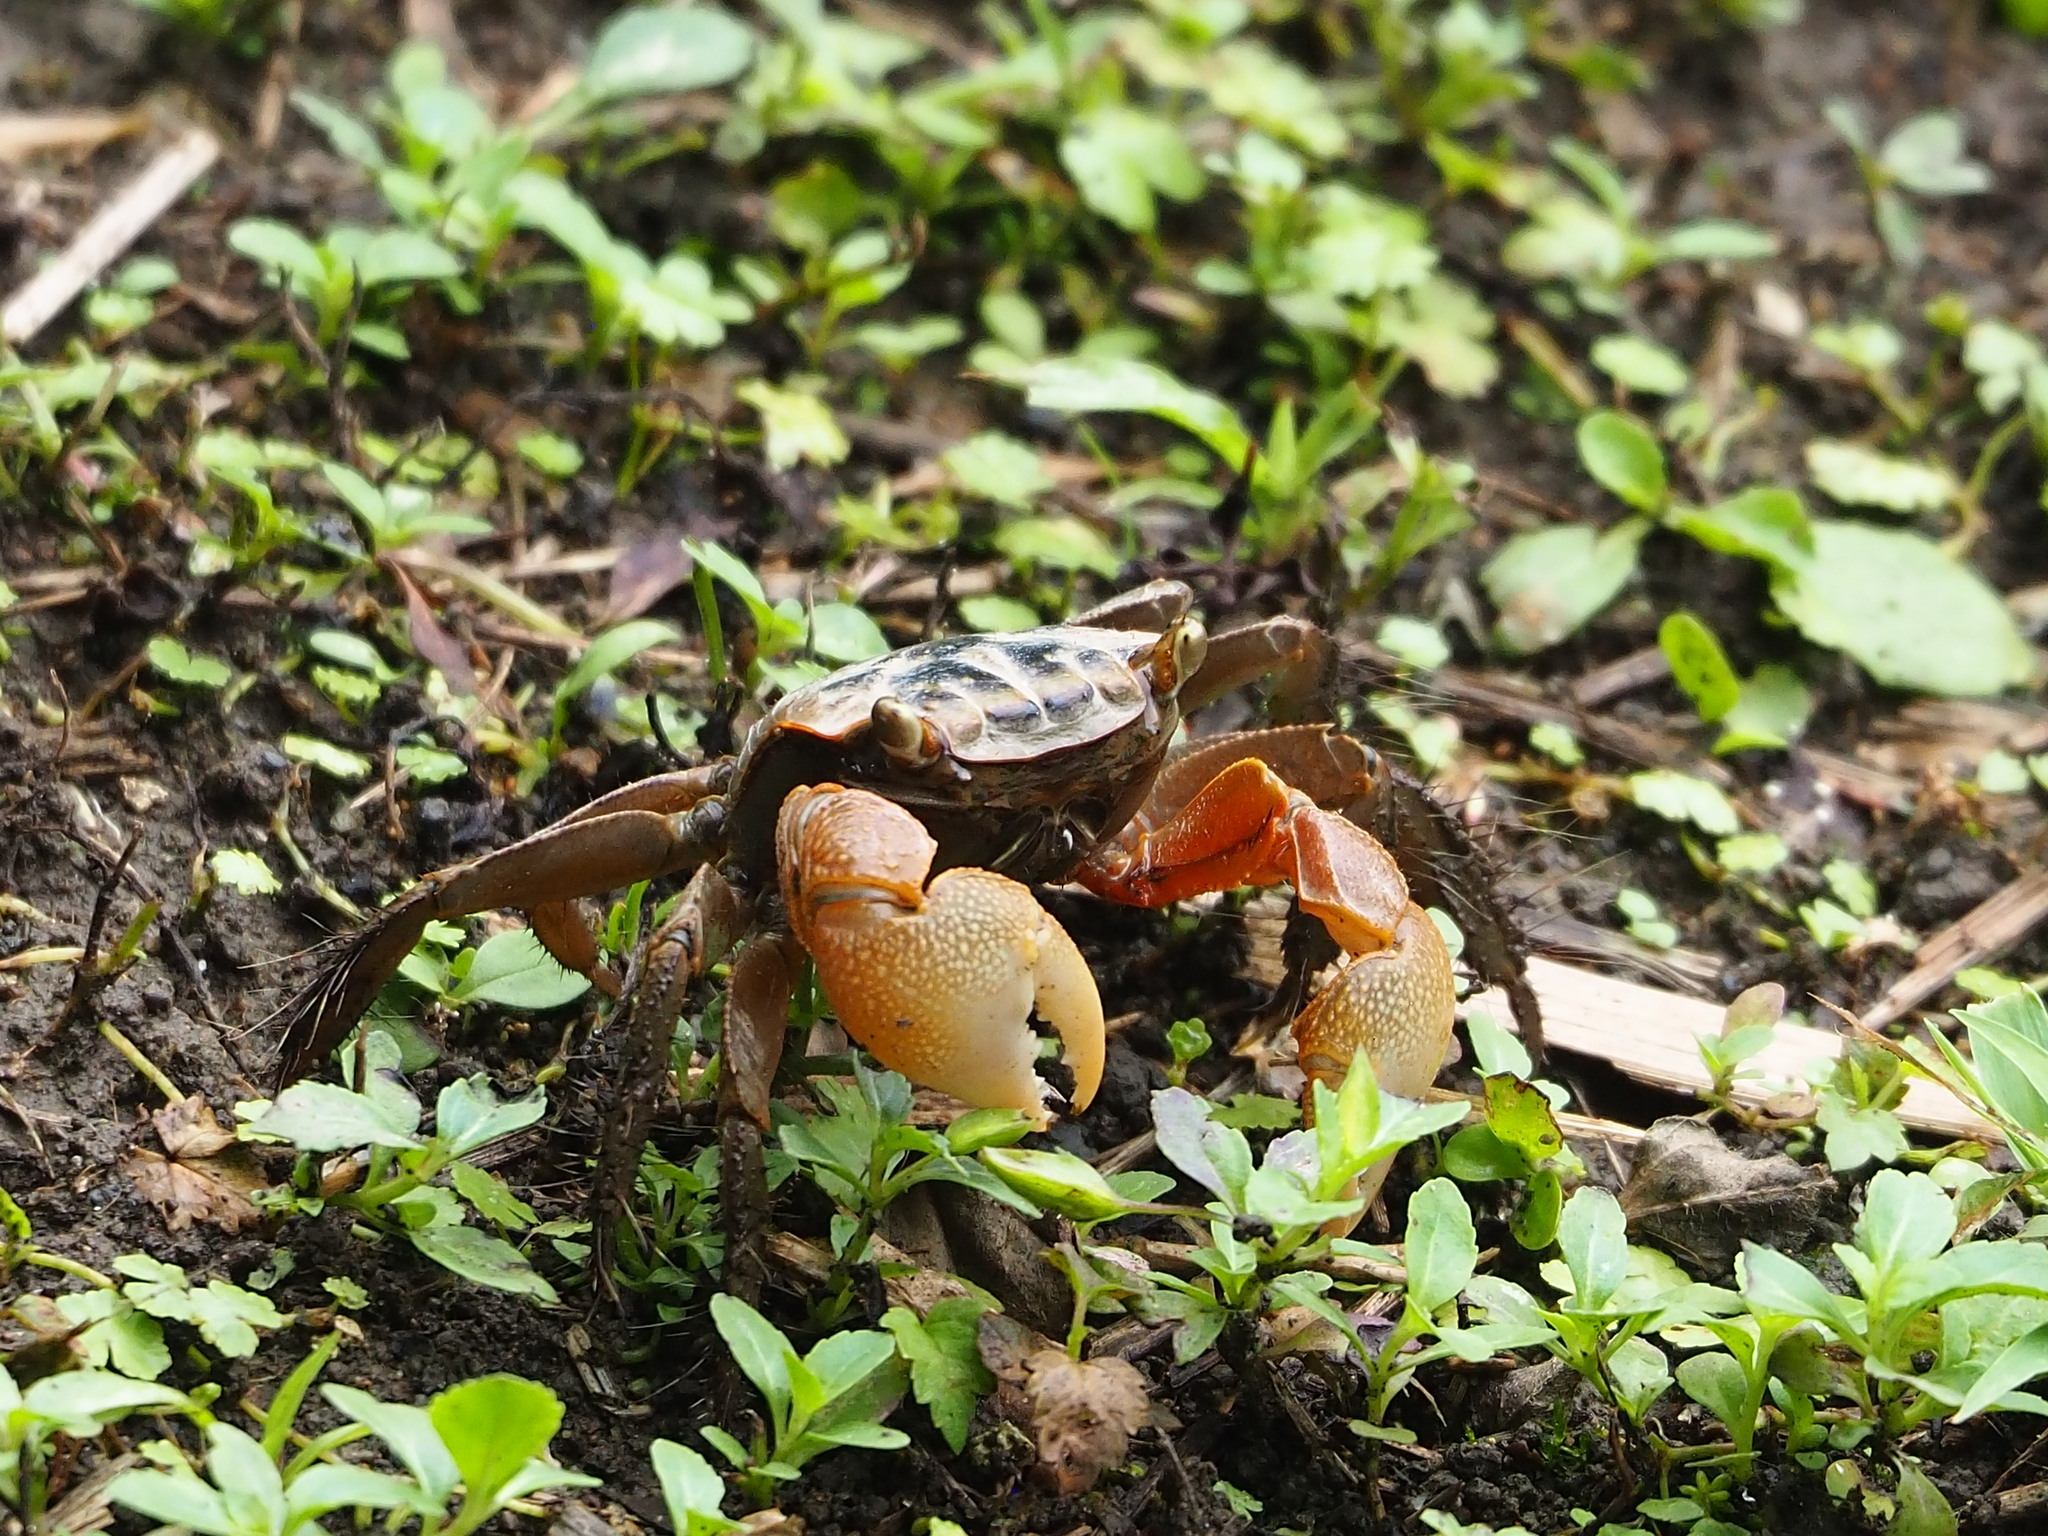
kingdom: Animalia
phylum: Arthropoda
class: Malacostraca
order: Decapoda
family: Sesarmidae
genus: Orisarma
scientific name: Orisarma dehaani
